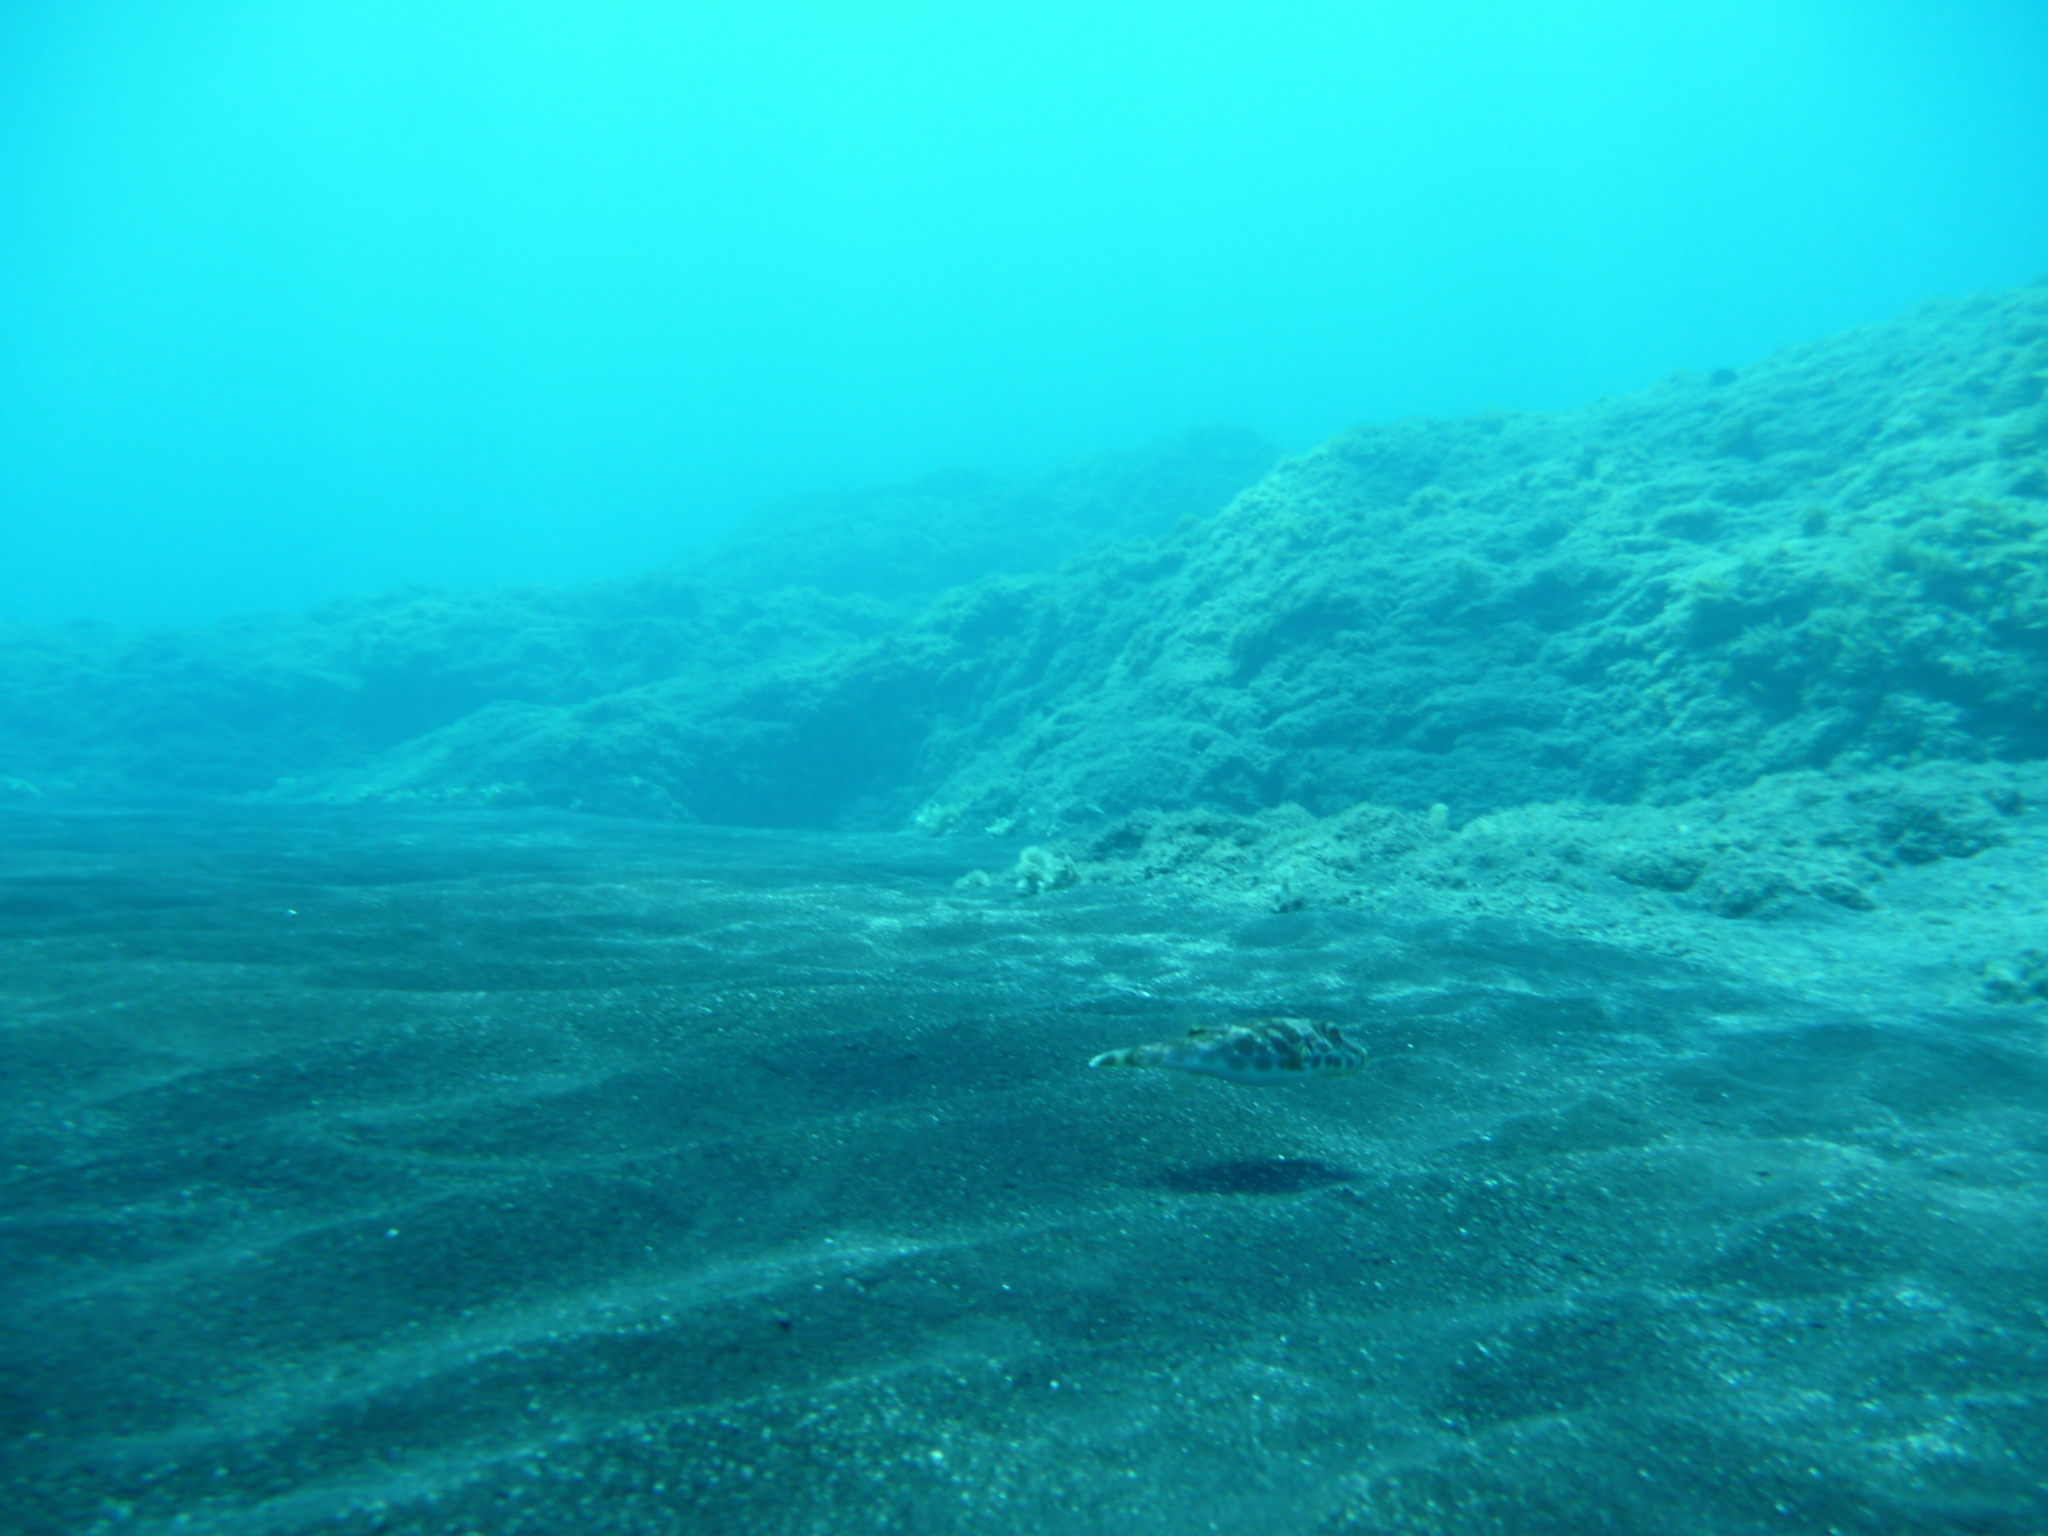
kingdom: Animalia
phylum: Chordata
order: Tetraodontiformes
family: Tetraodontidae
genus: Sphoeroides
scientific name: Sphoeroides marmoratus
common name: Guinean puffer
